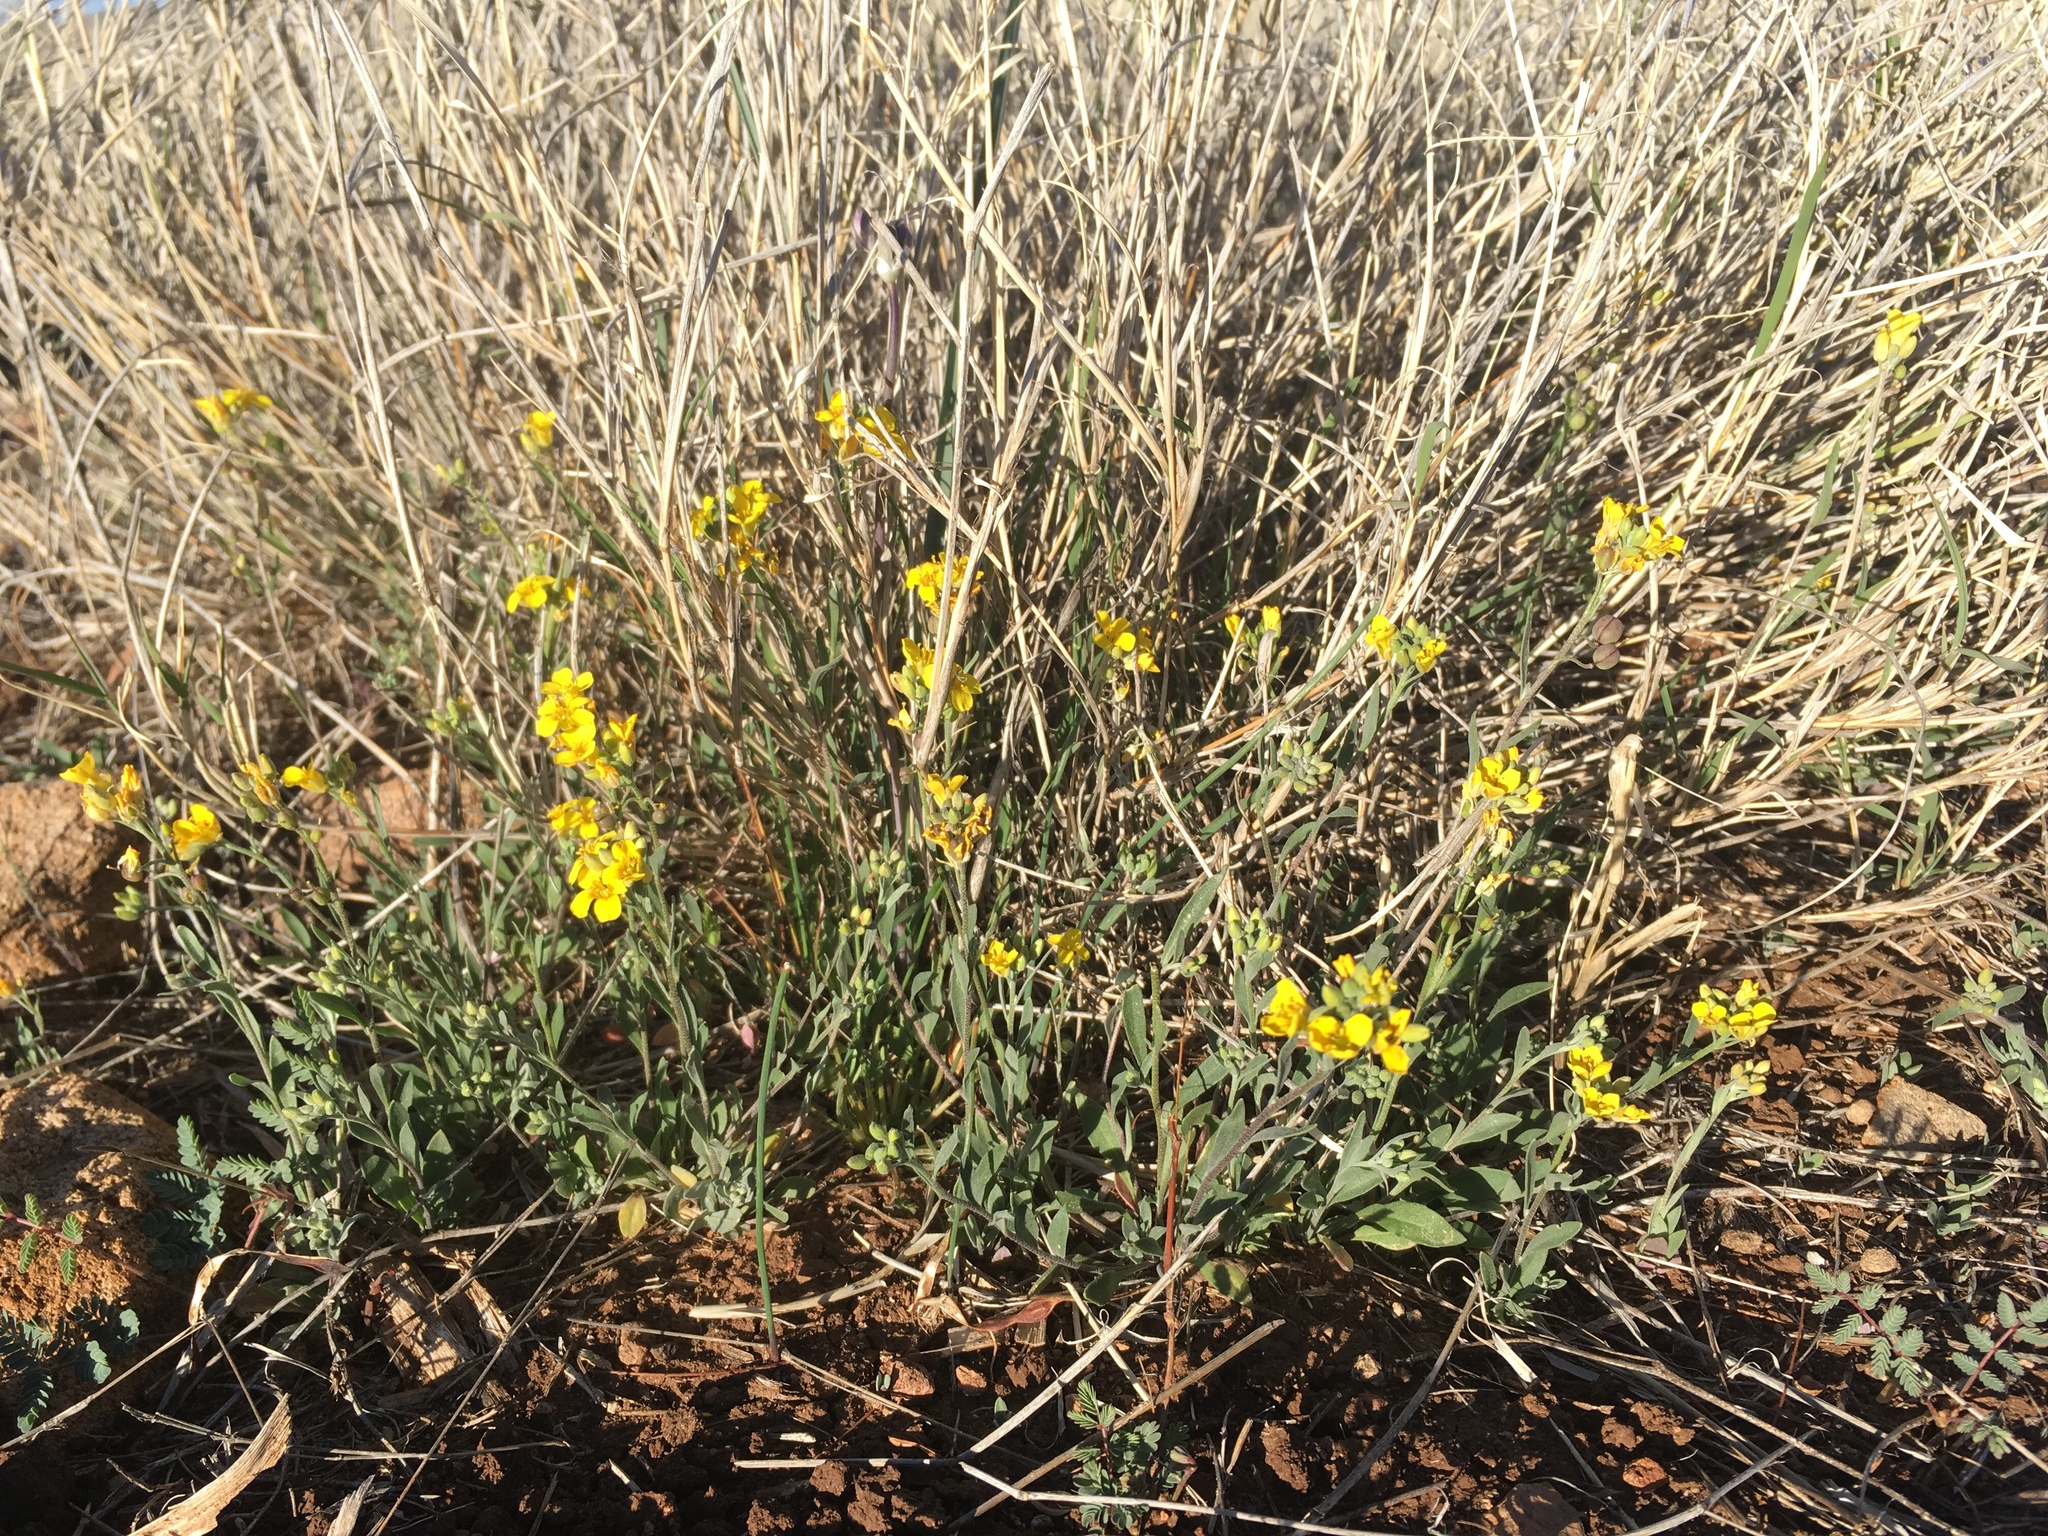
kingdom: Plantae
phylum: Tracheophyta
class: Magnoliopsida
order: Brassicales
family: Brassicaceae
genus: Physaria
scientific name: Physaria gordonii
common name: Gordon's bladderpod
